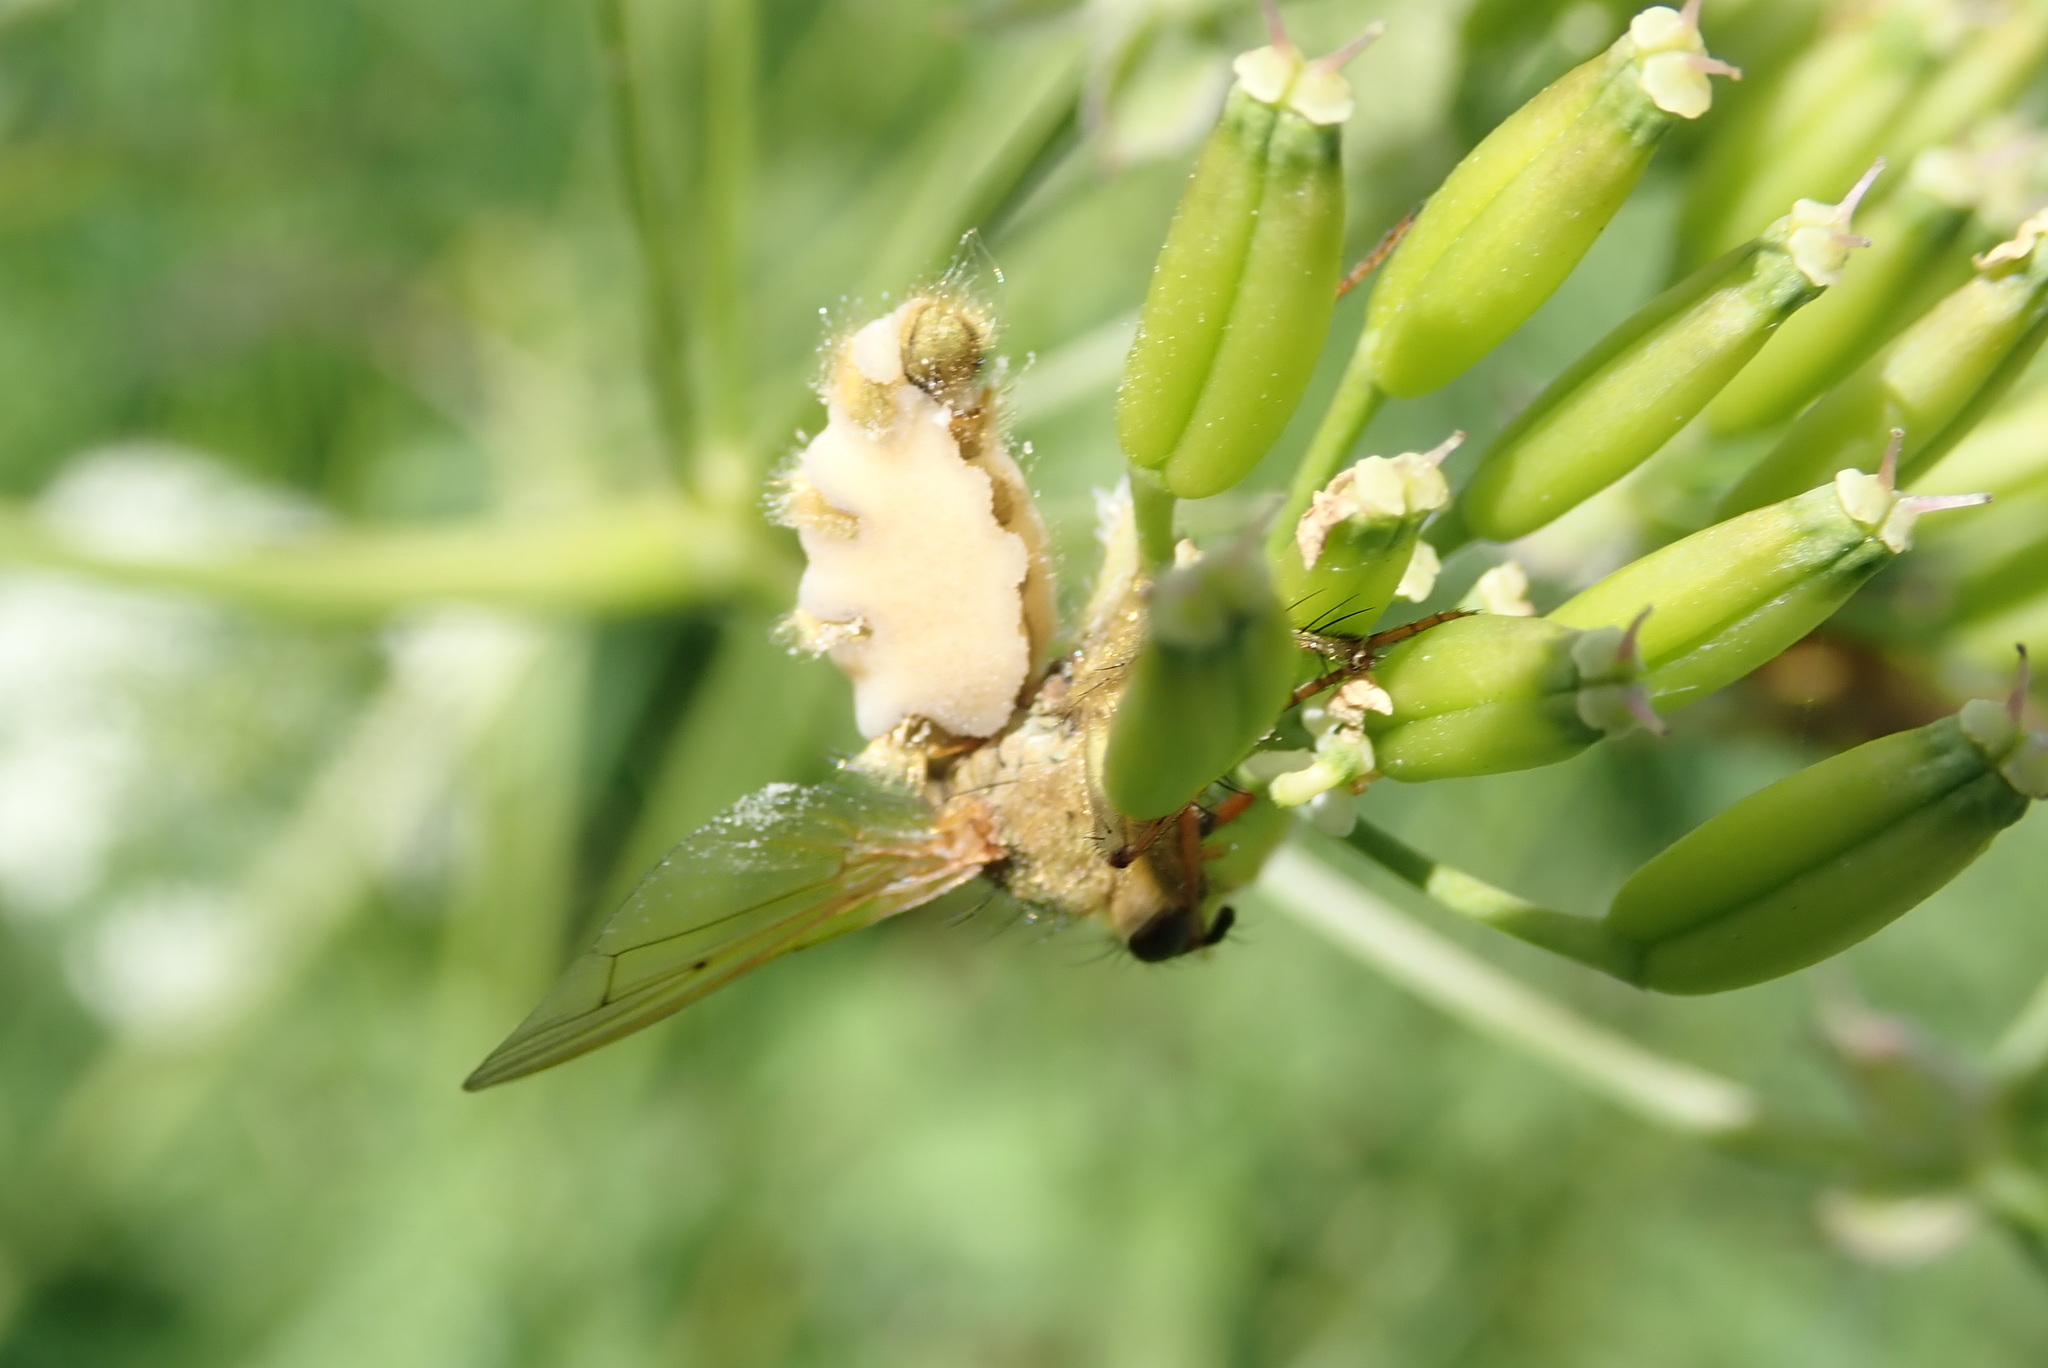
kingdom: Fungi
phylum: Entomophthoromycota
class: Entomophthoromycetes
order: Entomophthorales
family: Entomophthoraceae
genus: Entomophthora
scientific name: Entomophthora
